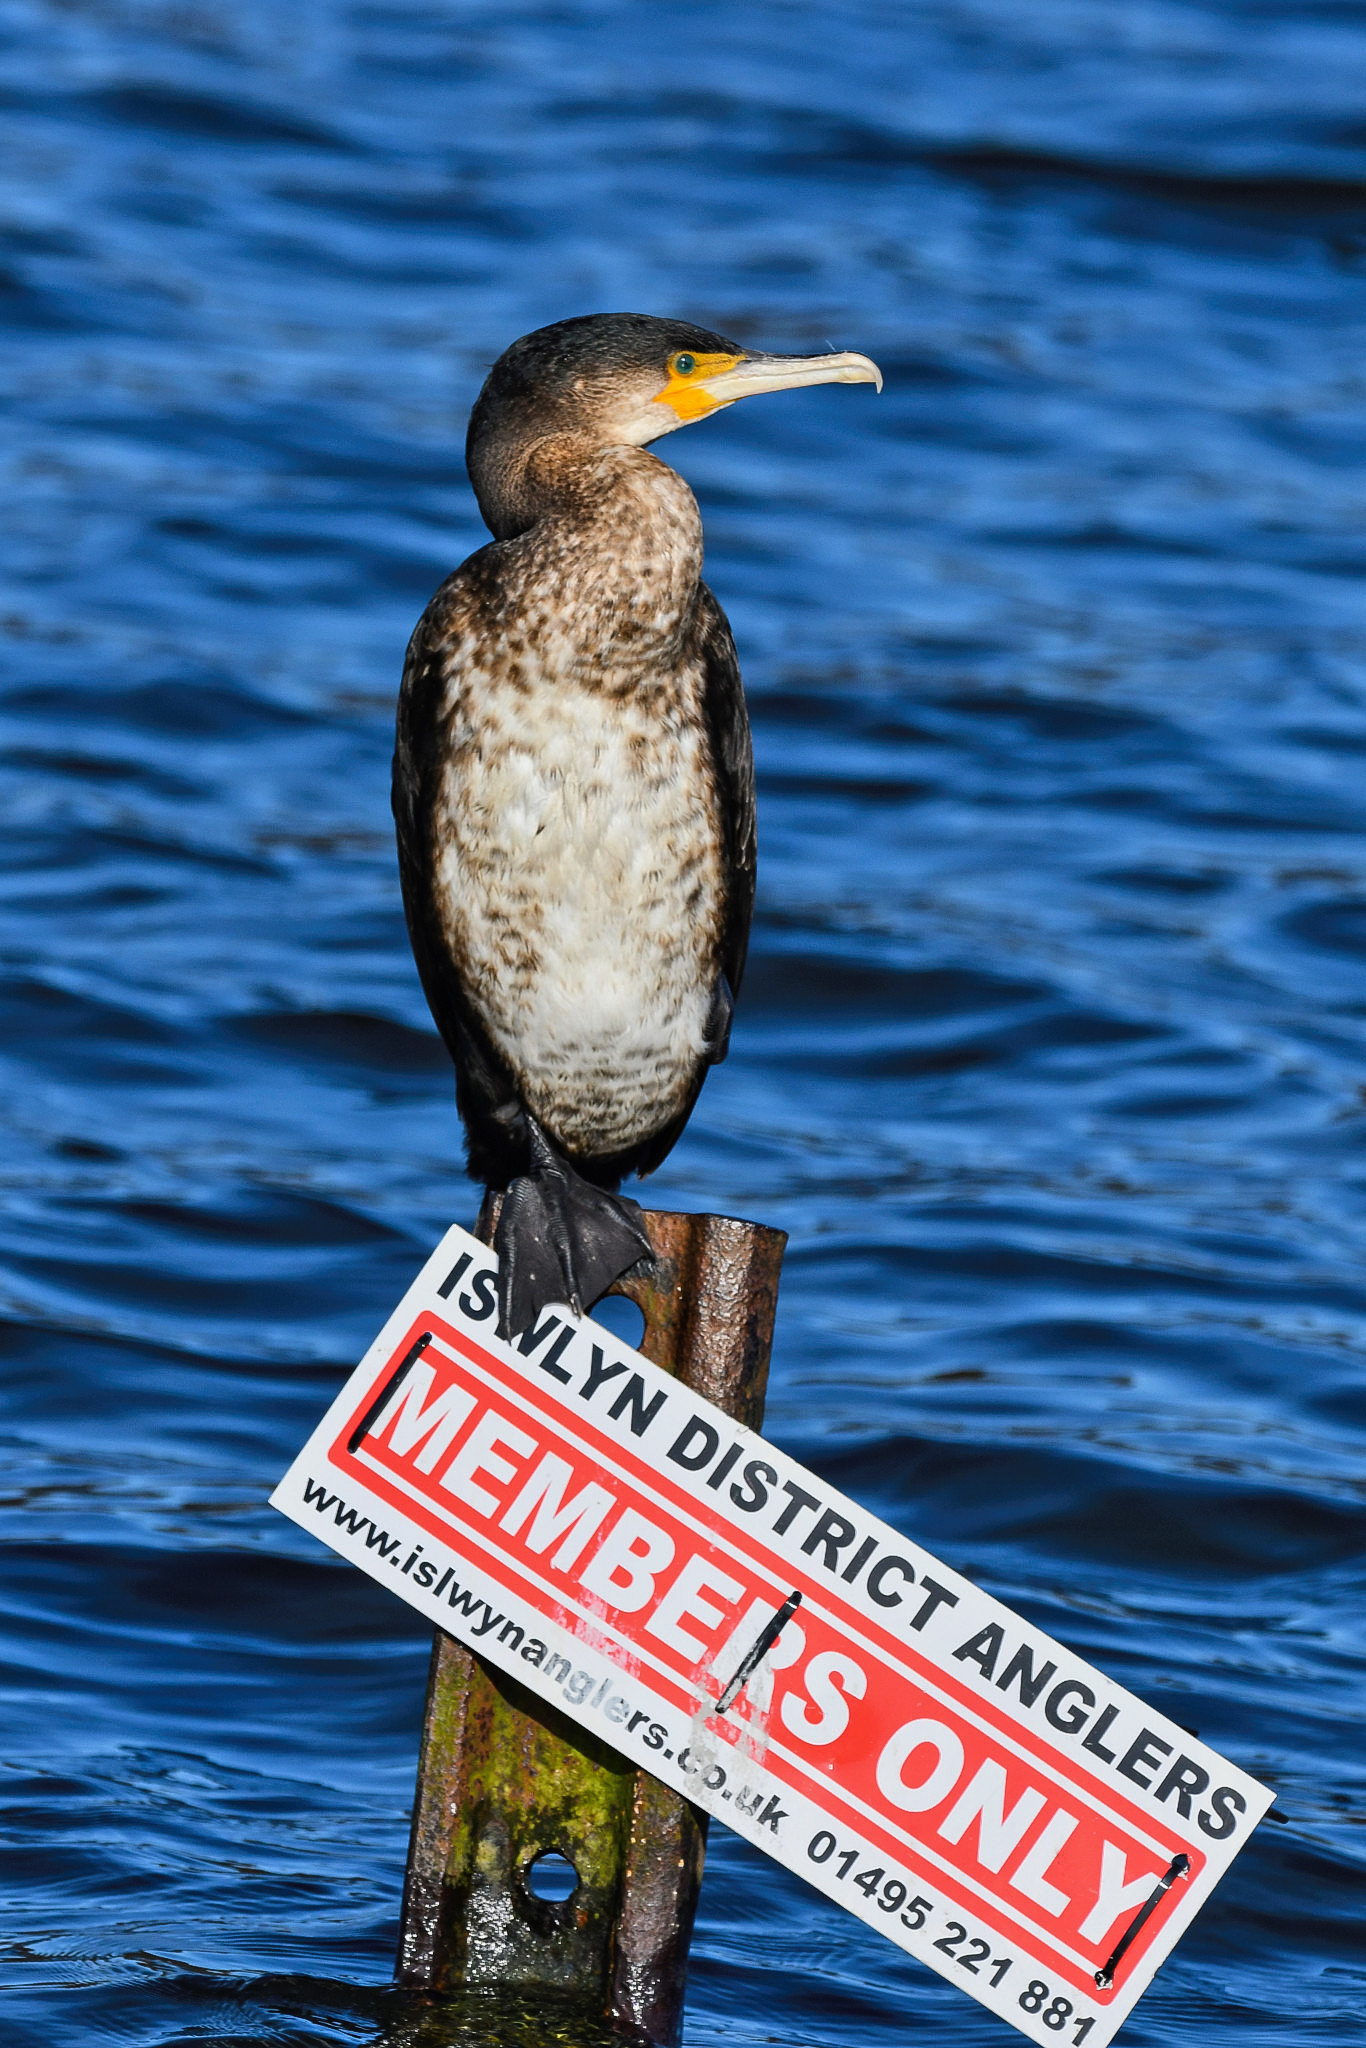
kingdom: Animalia
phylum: Chordata
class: Aves
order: Suliformes
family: Phalacrocoracidae
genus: Phalacrocorax
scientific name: Phalacrocorax carbo
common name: Great cormorant
